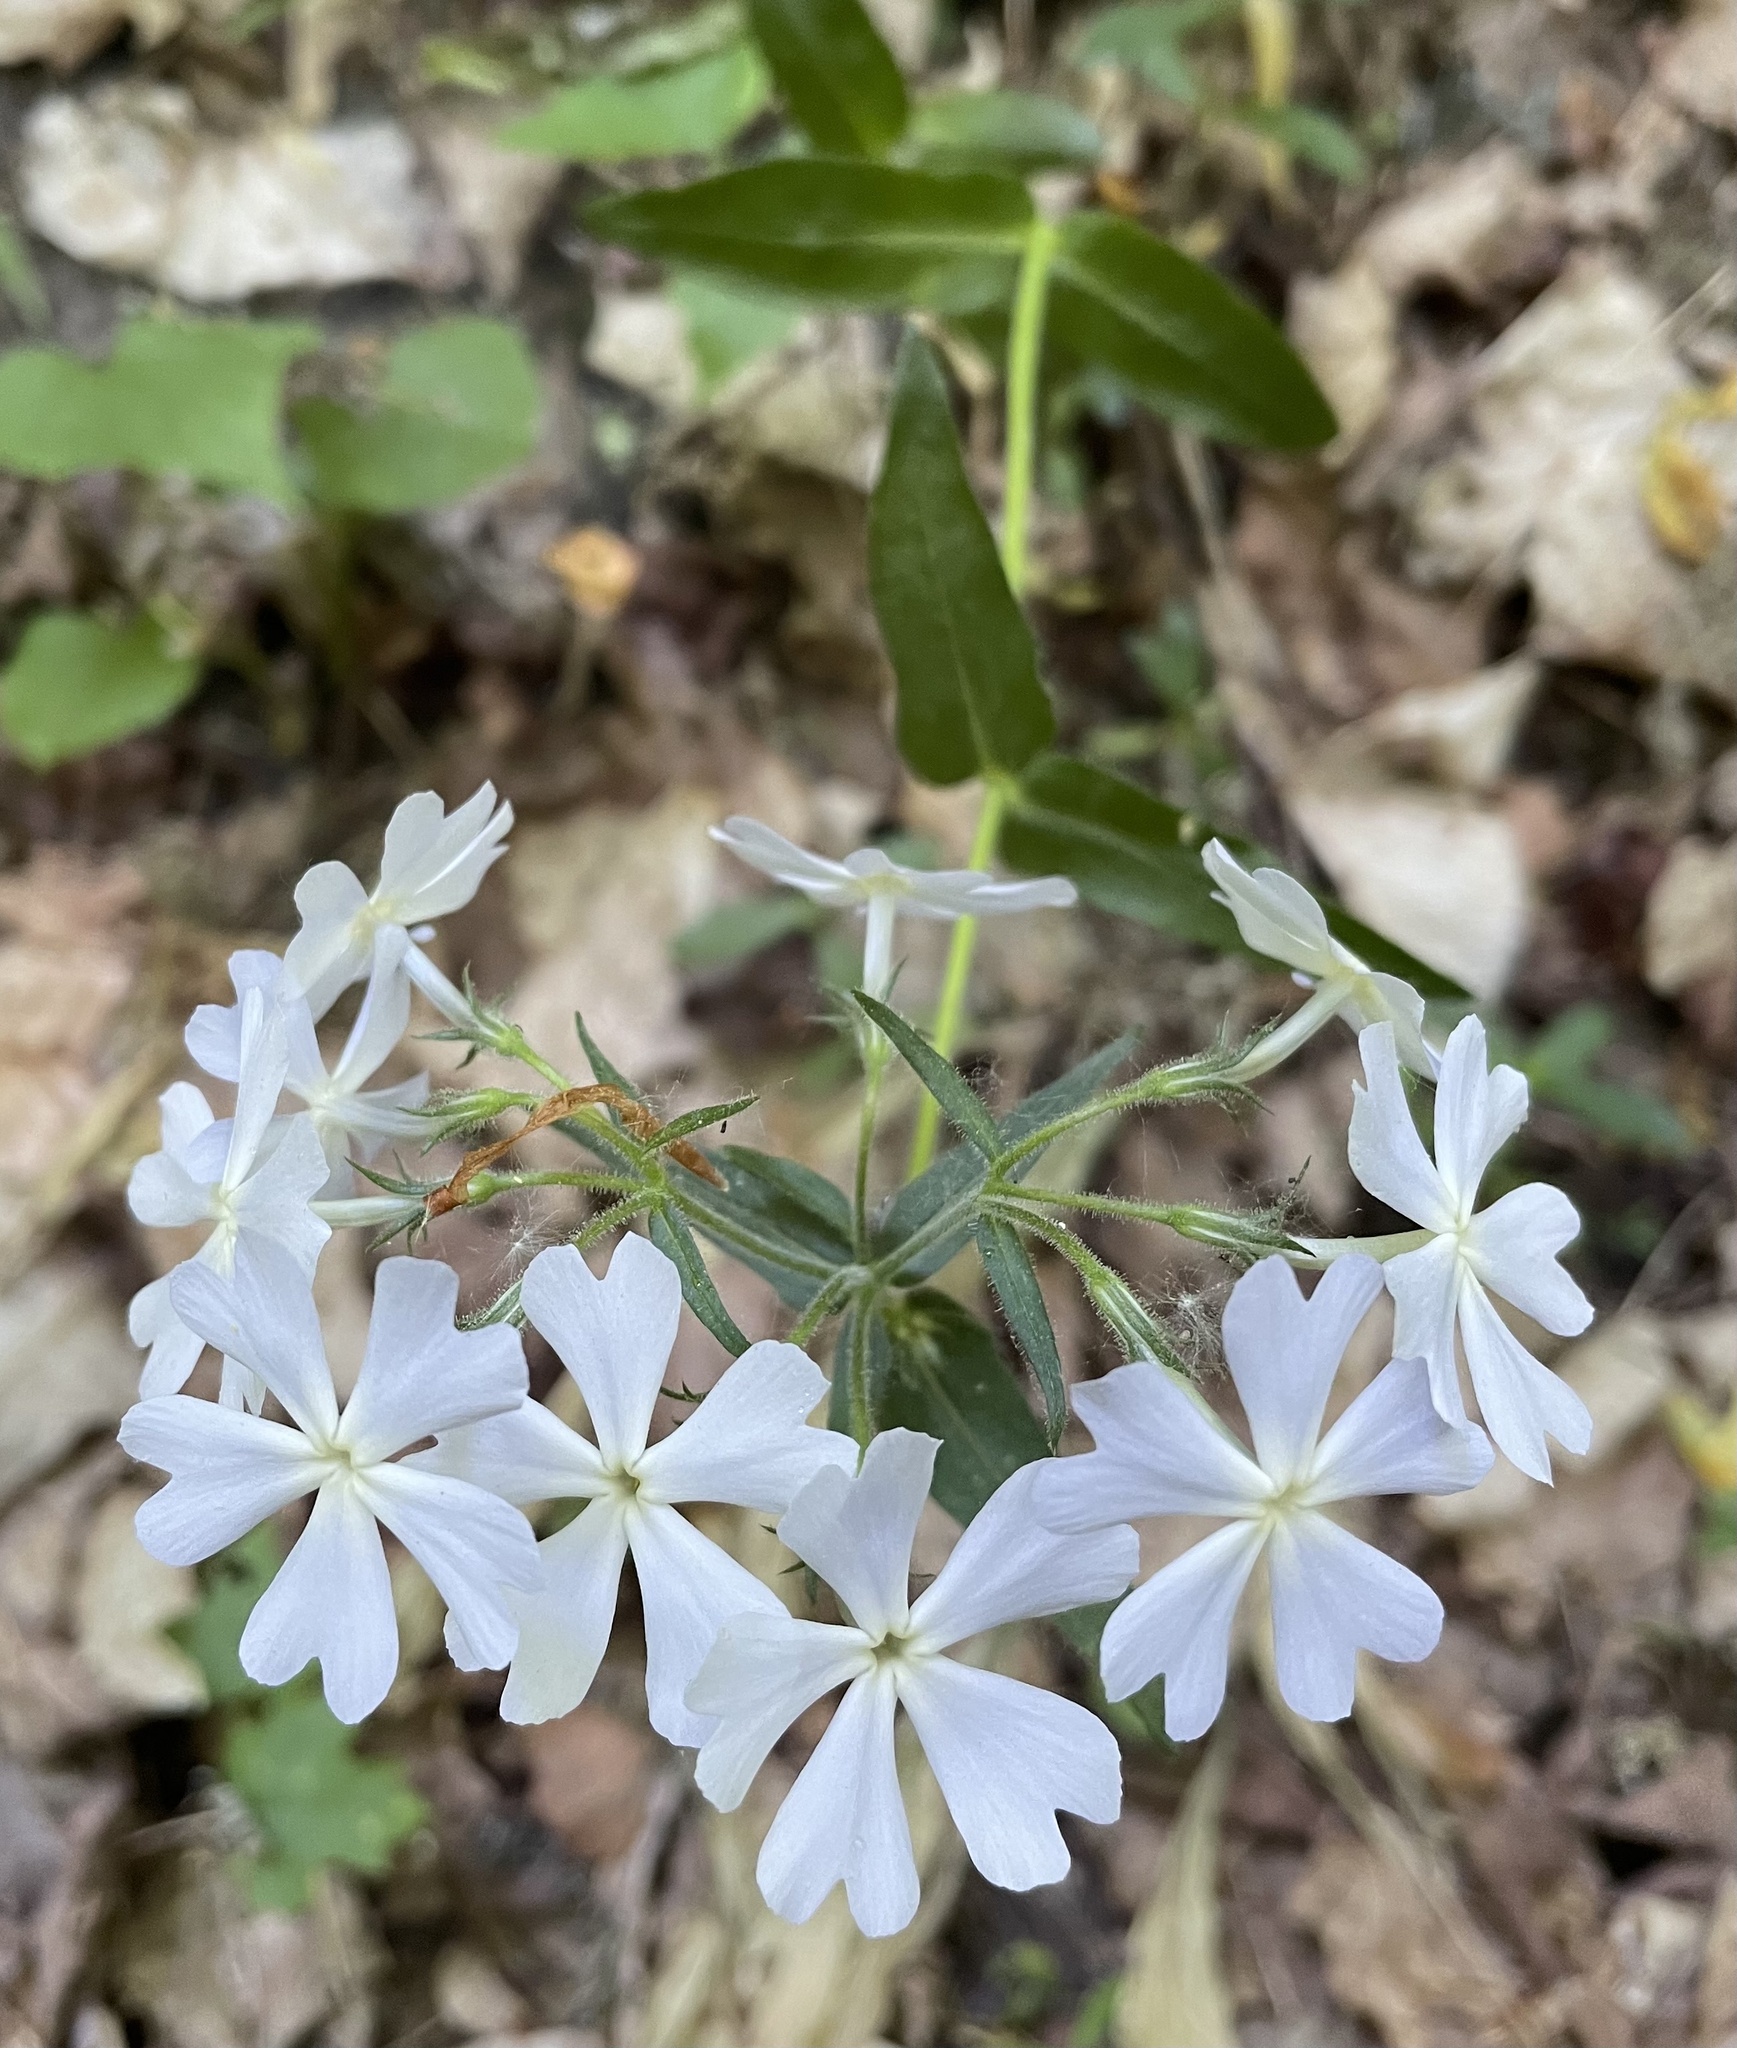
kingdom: Plantae
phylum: Tracheophyta
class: Magnoliopsida
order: Ericales
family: Polemoniaceae
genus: Phlox
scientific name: Phlox divaricata
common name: Blue phlox
